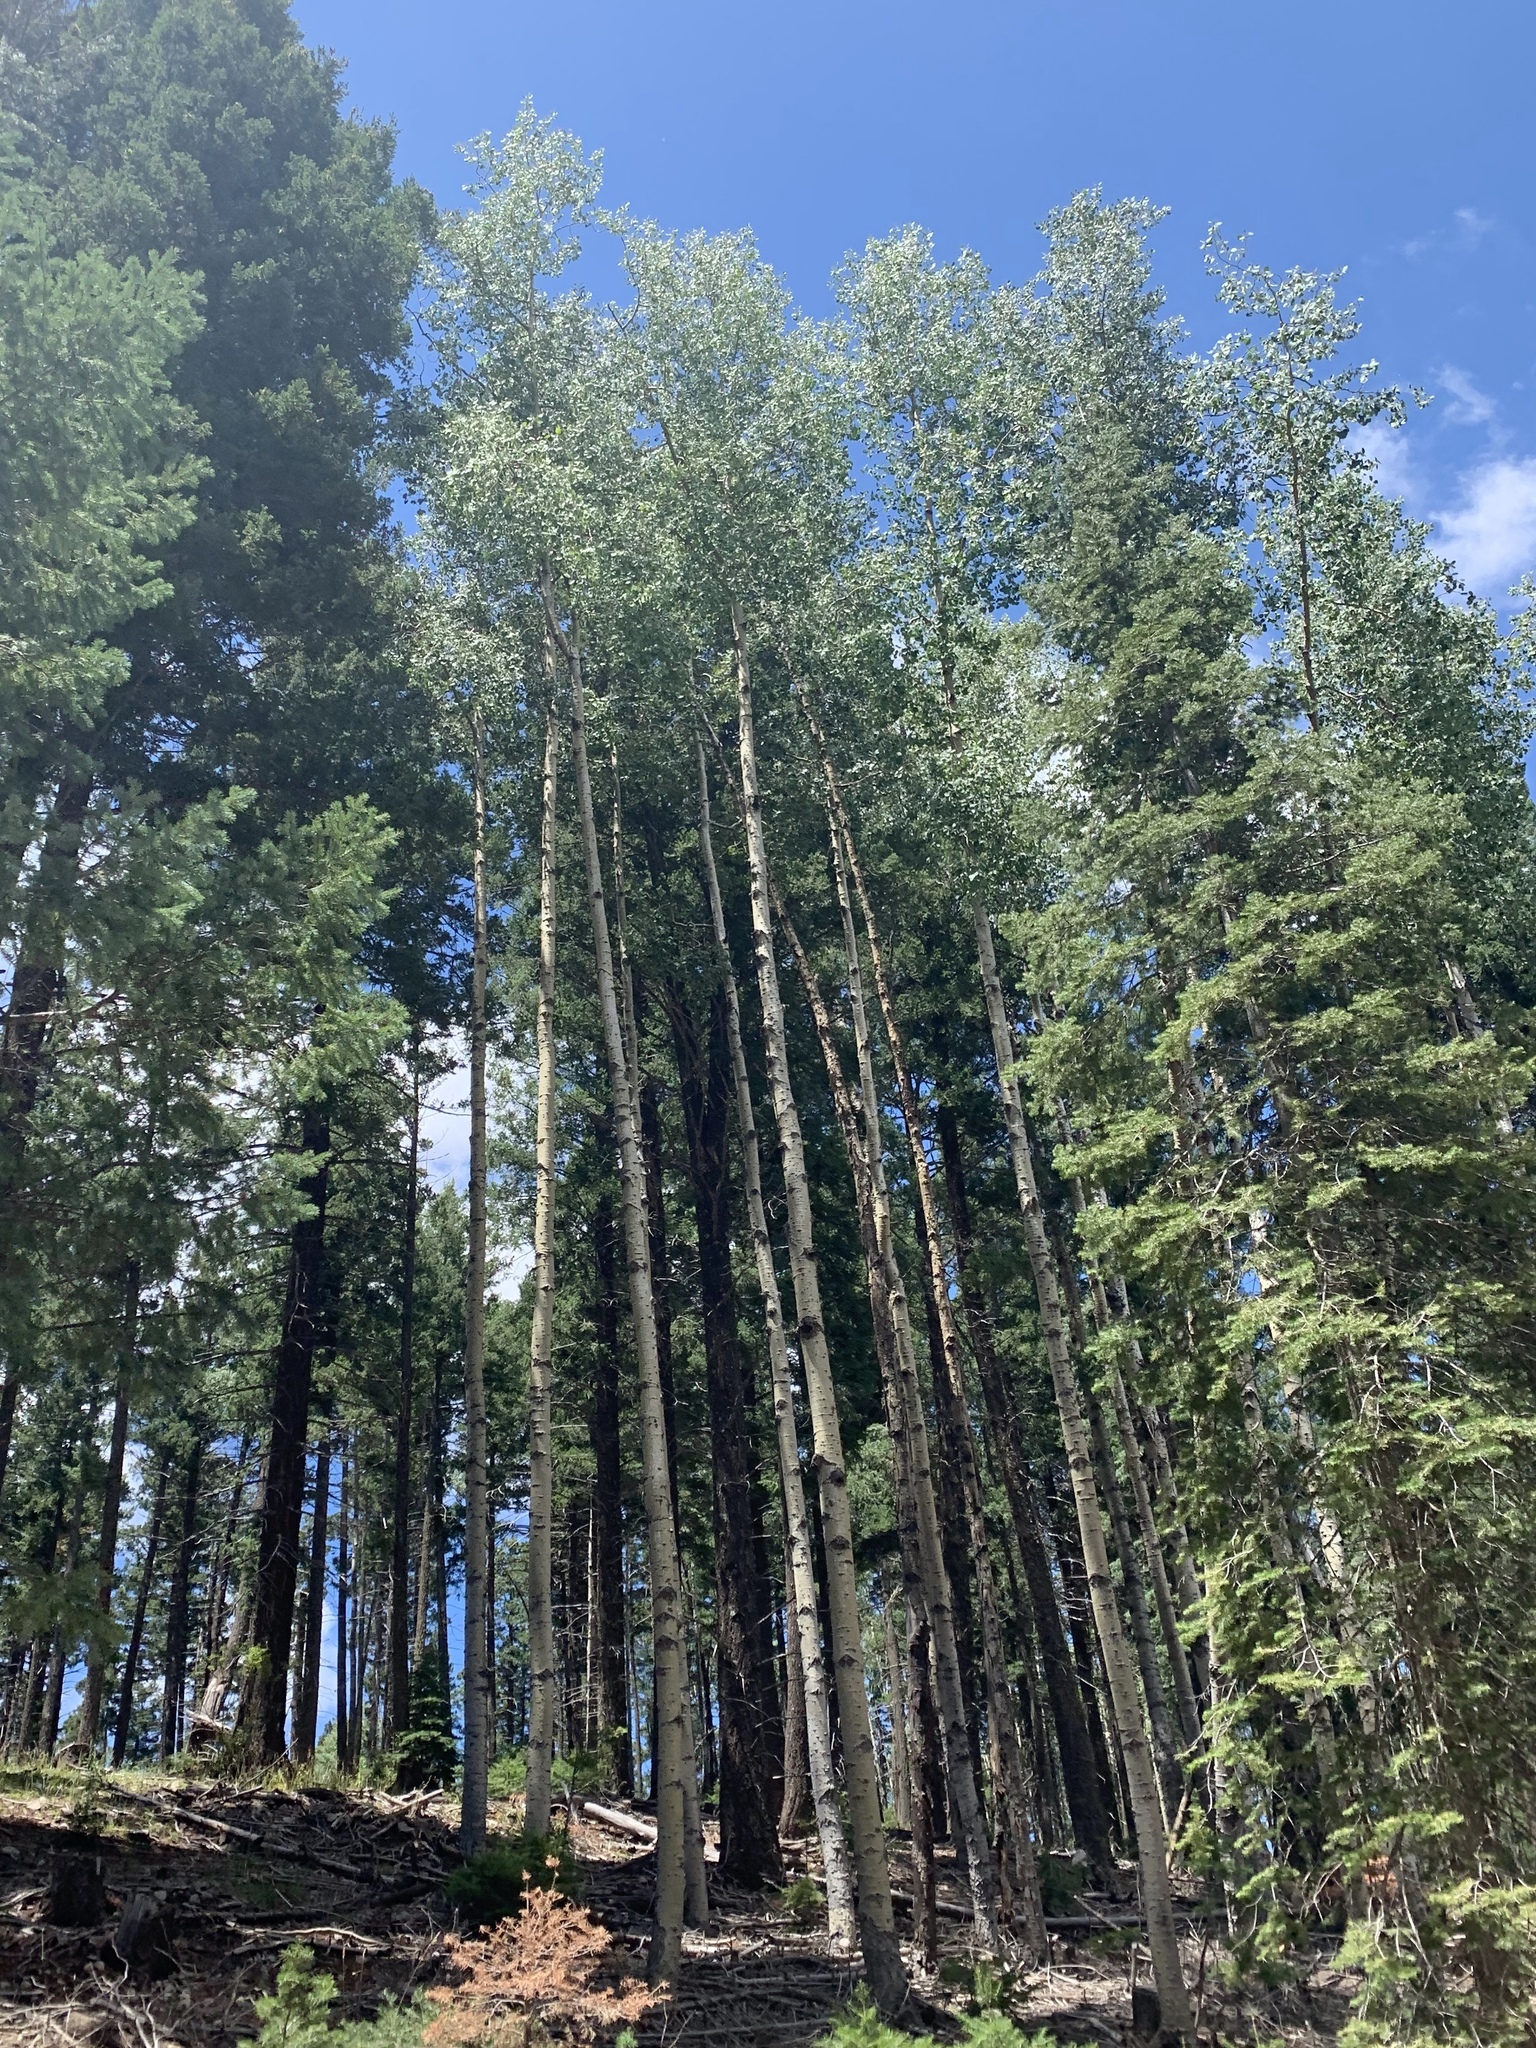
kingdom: Plantae
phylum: Tracheophyta
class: Magnoliopsida
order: Malpighiales
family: Salicaceae
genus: Populus
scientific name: Populus tremuloides
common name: Quaking aspen
